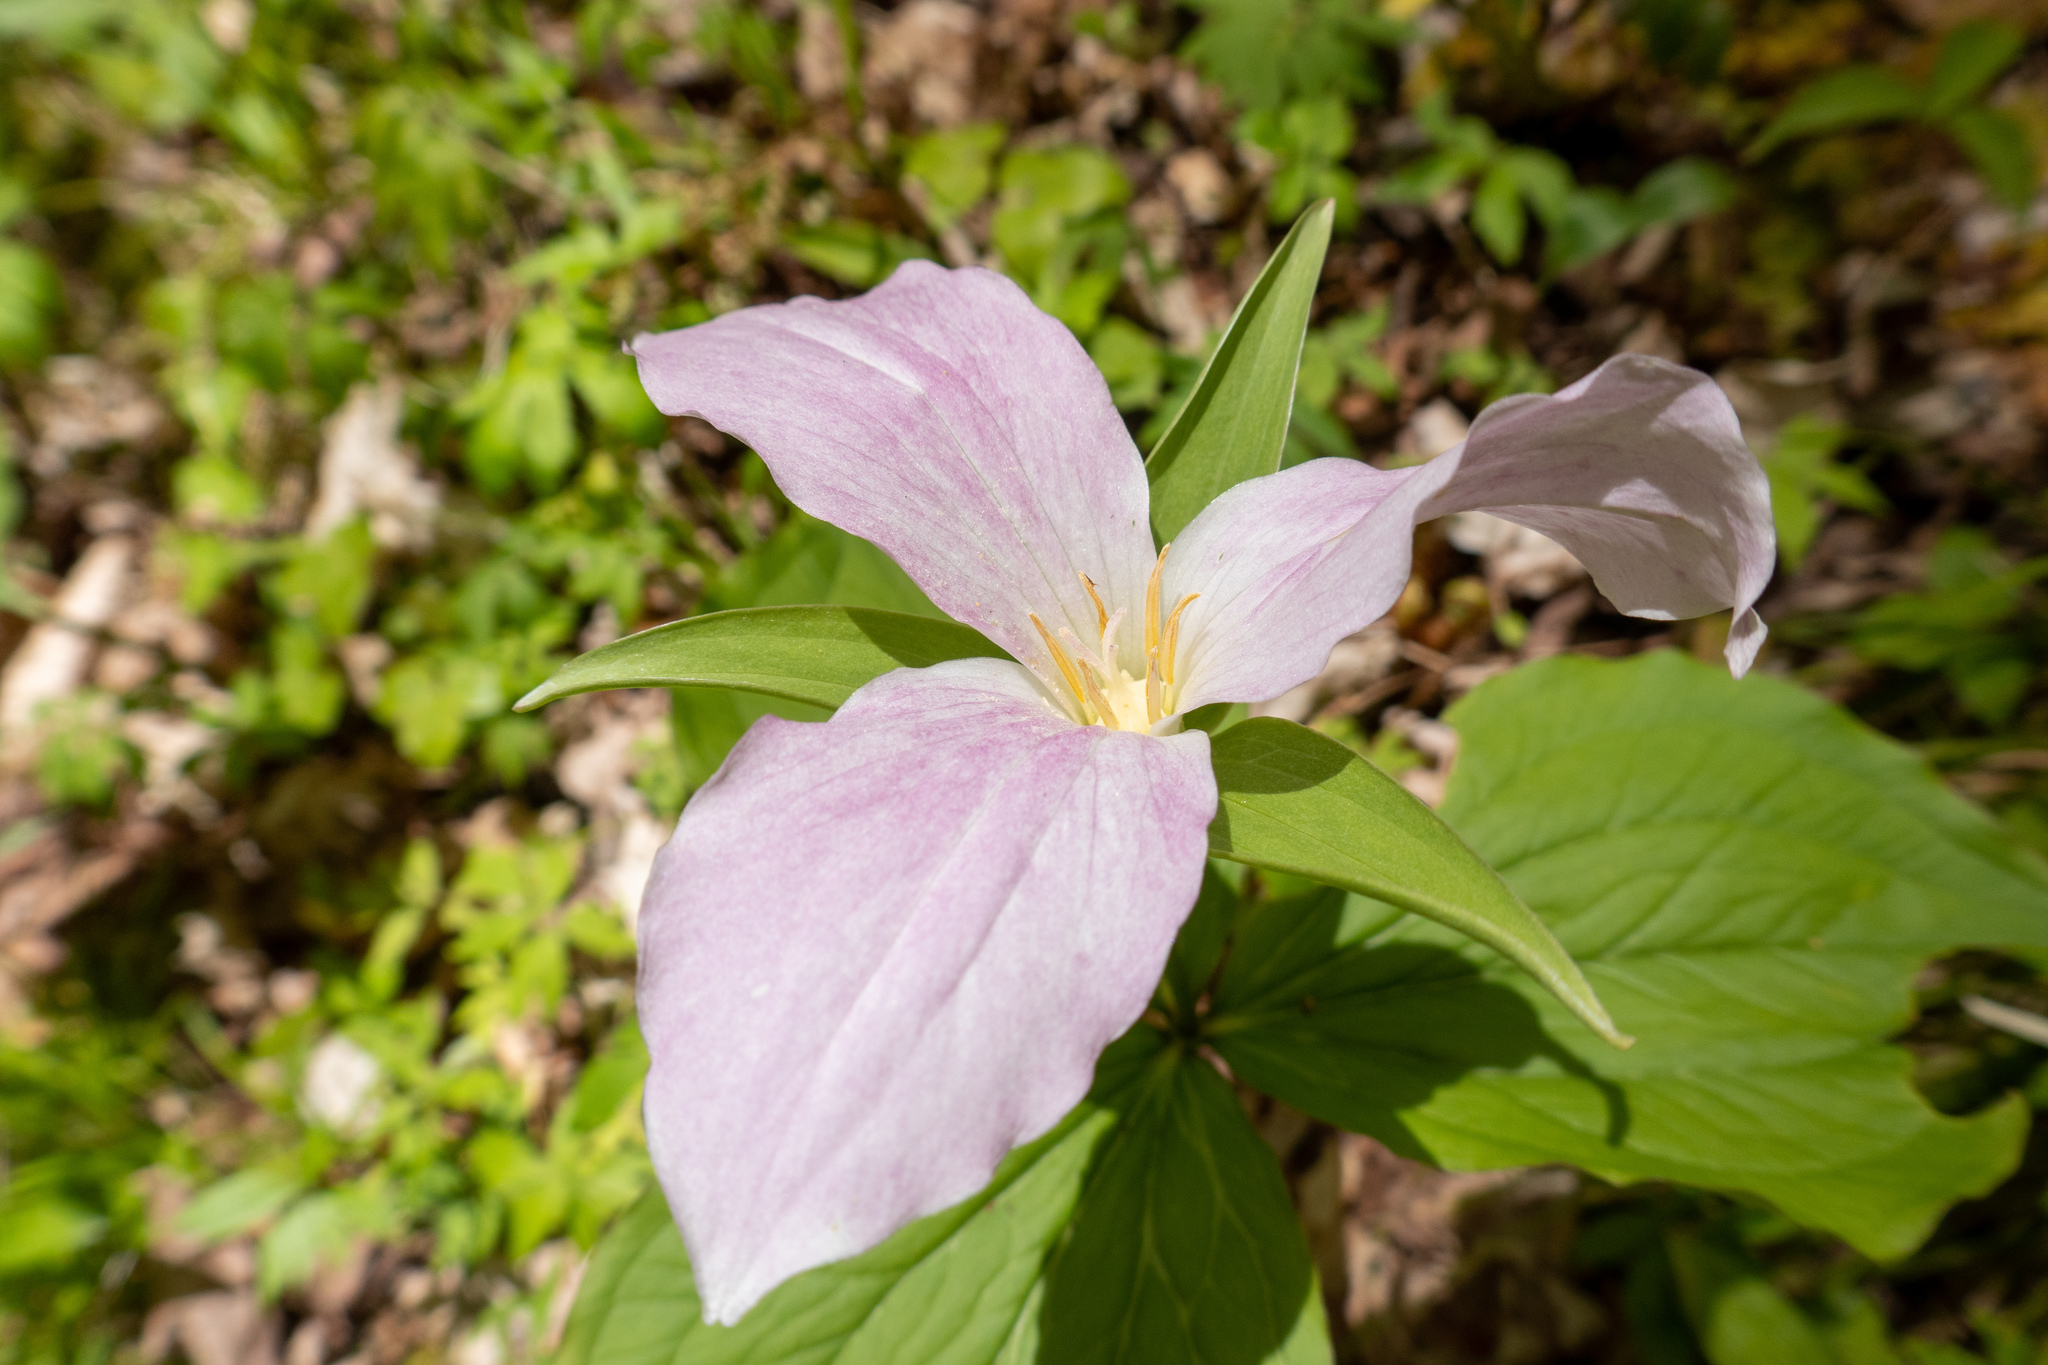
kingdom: Plantae
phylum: Tracheophyta
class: Liliopsida
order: Liliales
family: Melanthiaceae
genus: Trillium
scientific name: Trillium grandiflorum
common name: Great white trillium
